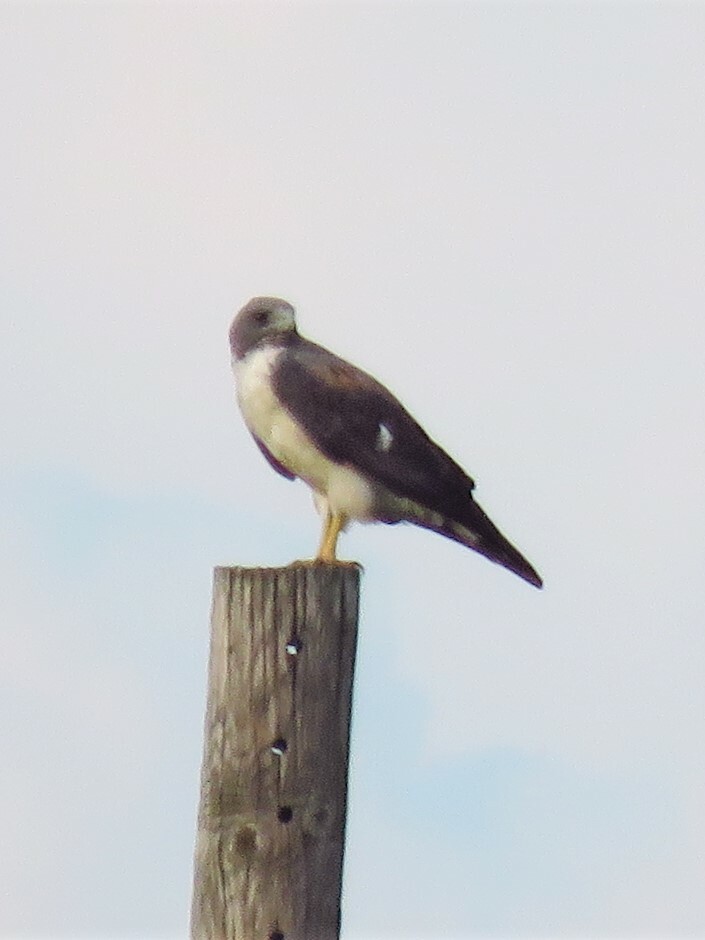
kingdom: Animalia
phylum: Chordata
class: Aves
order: Accipitriformes
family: Accipitridae
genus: Buteo
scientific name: Buteo albicaudatus
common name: White-tailed hawk
